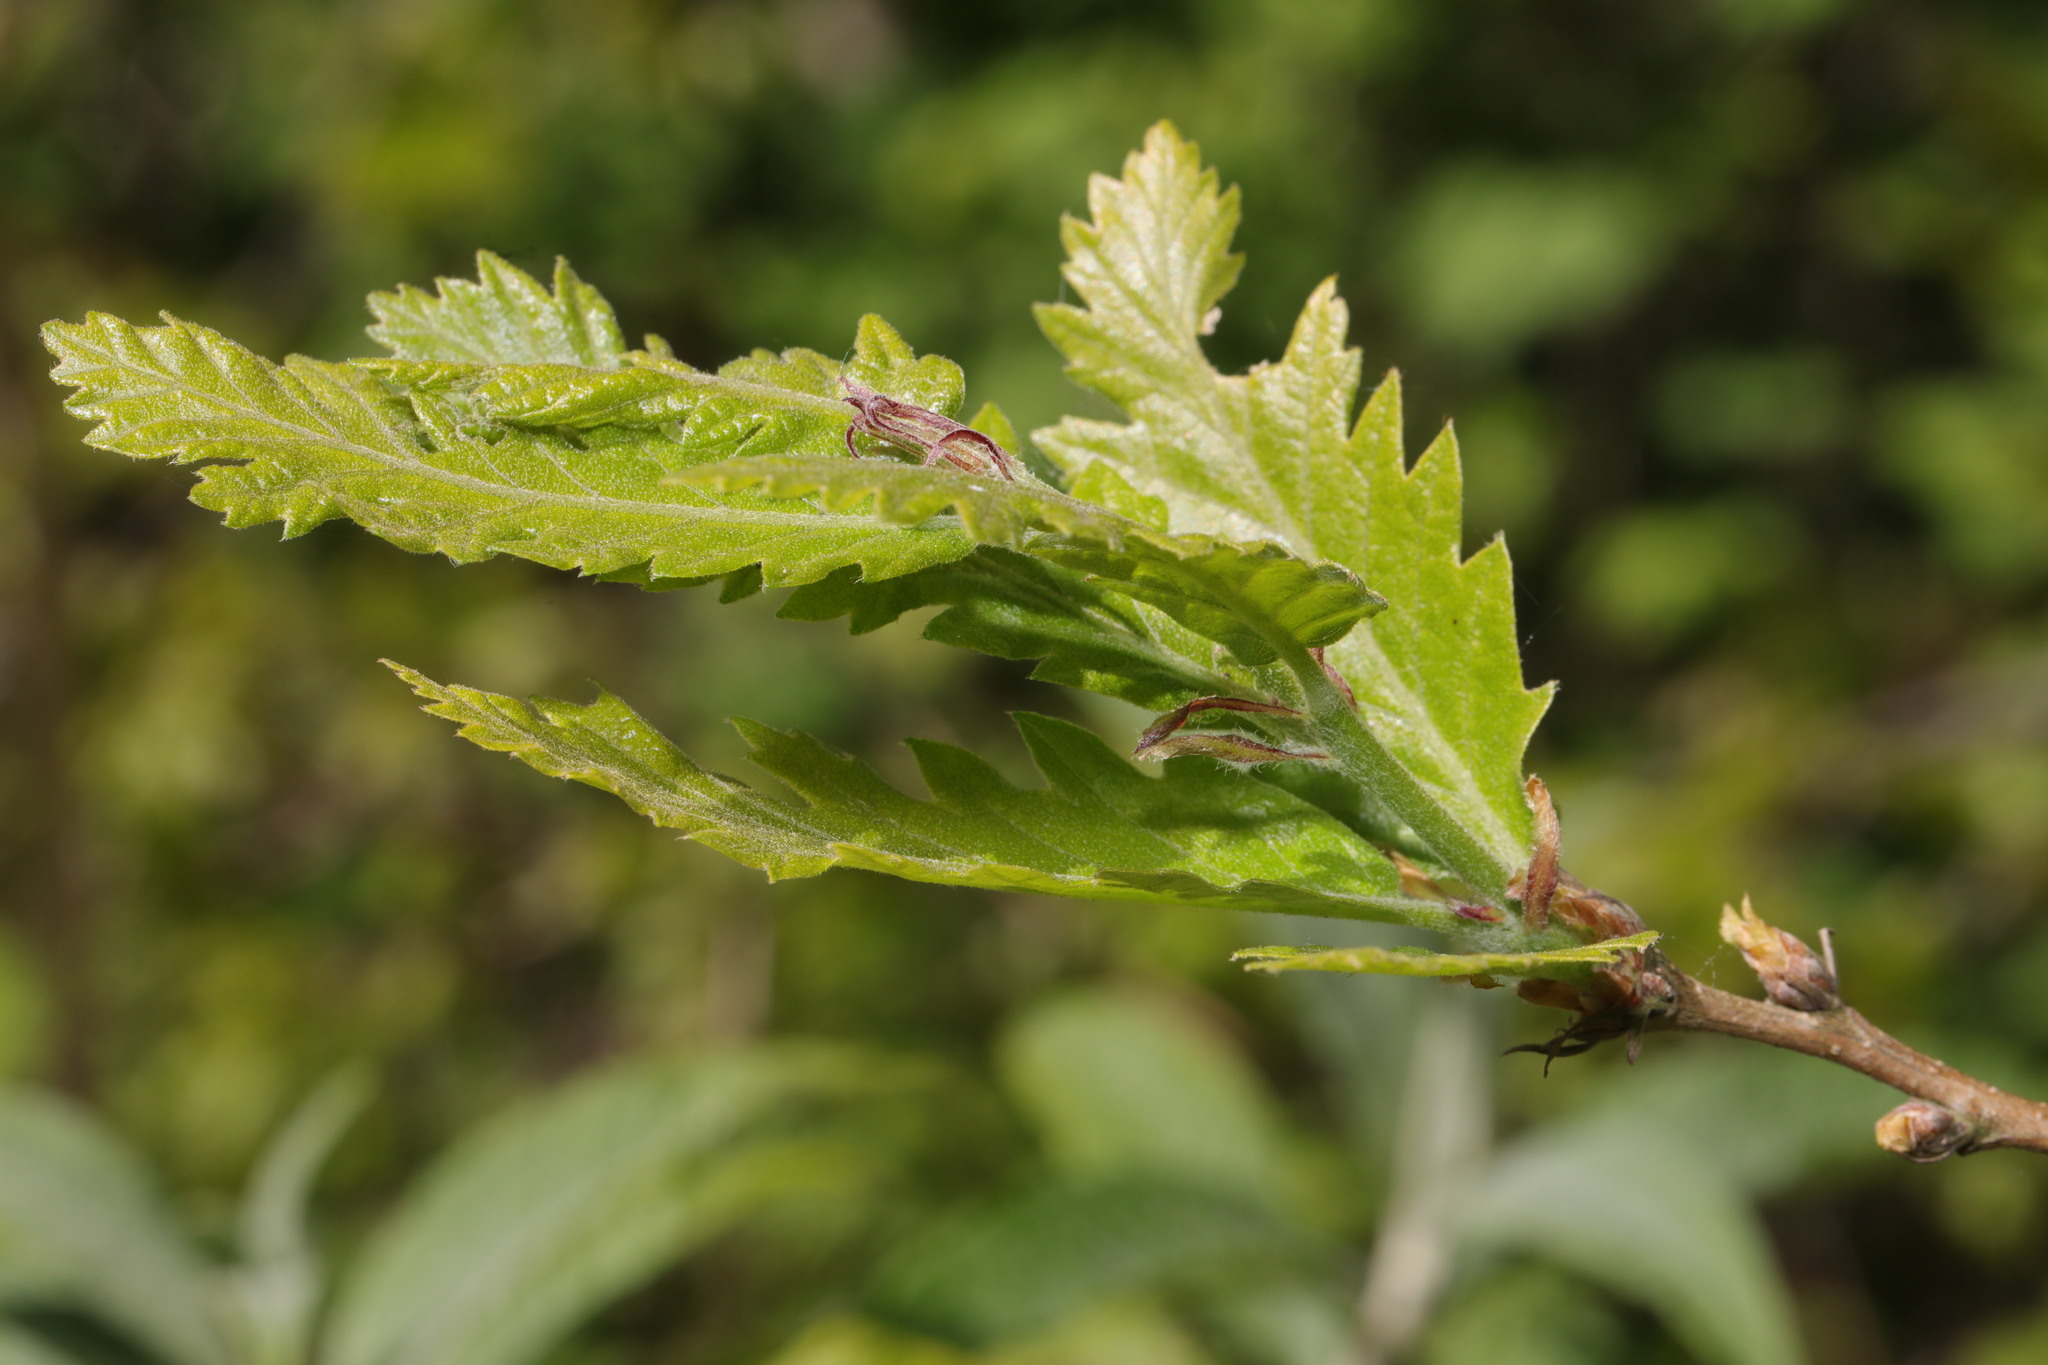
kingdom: Plantae
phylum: Tracheophyta
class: Magnoliopsida
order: Fagales
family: Fagaceae
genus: Quercus
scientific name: Quercus cerris
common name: Turkey oak
